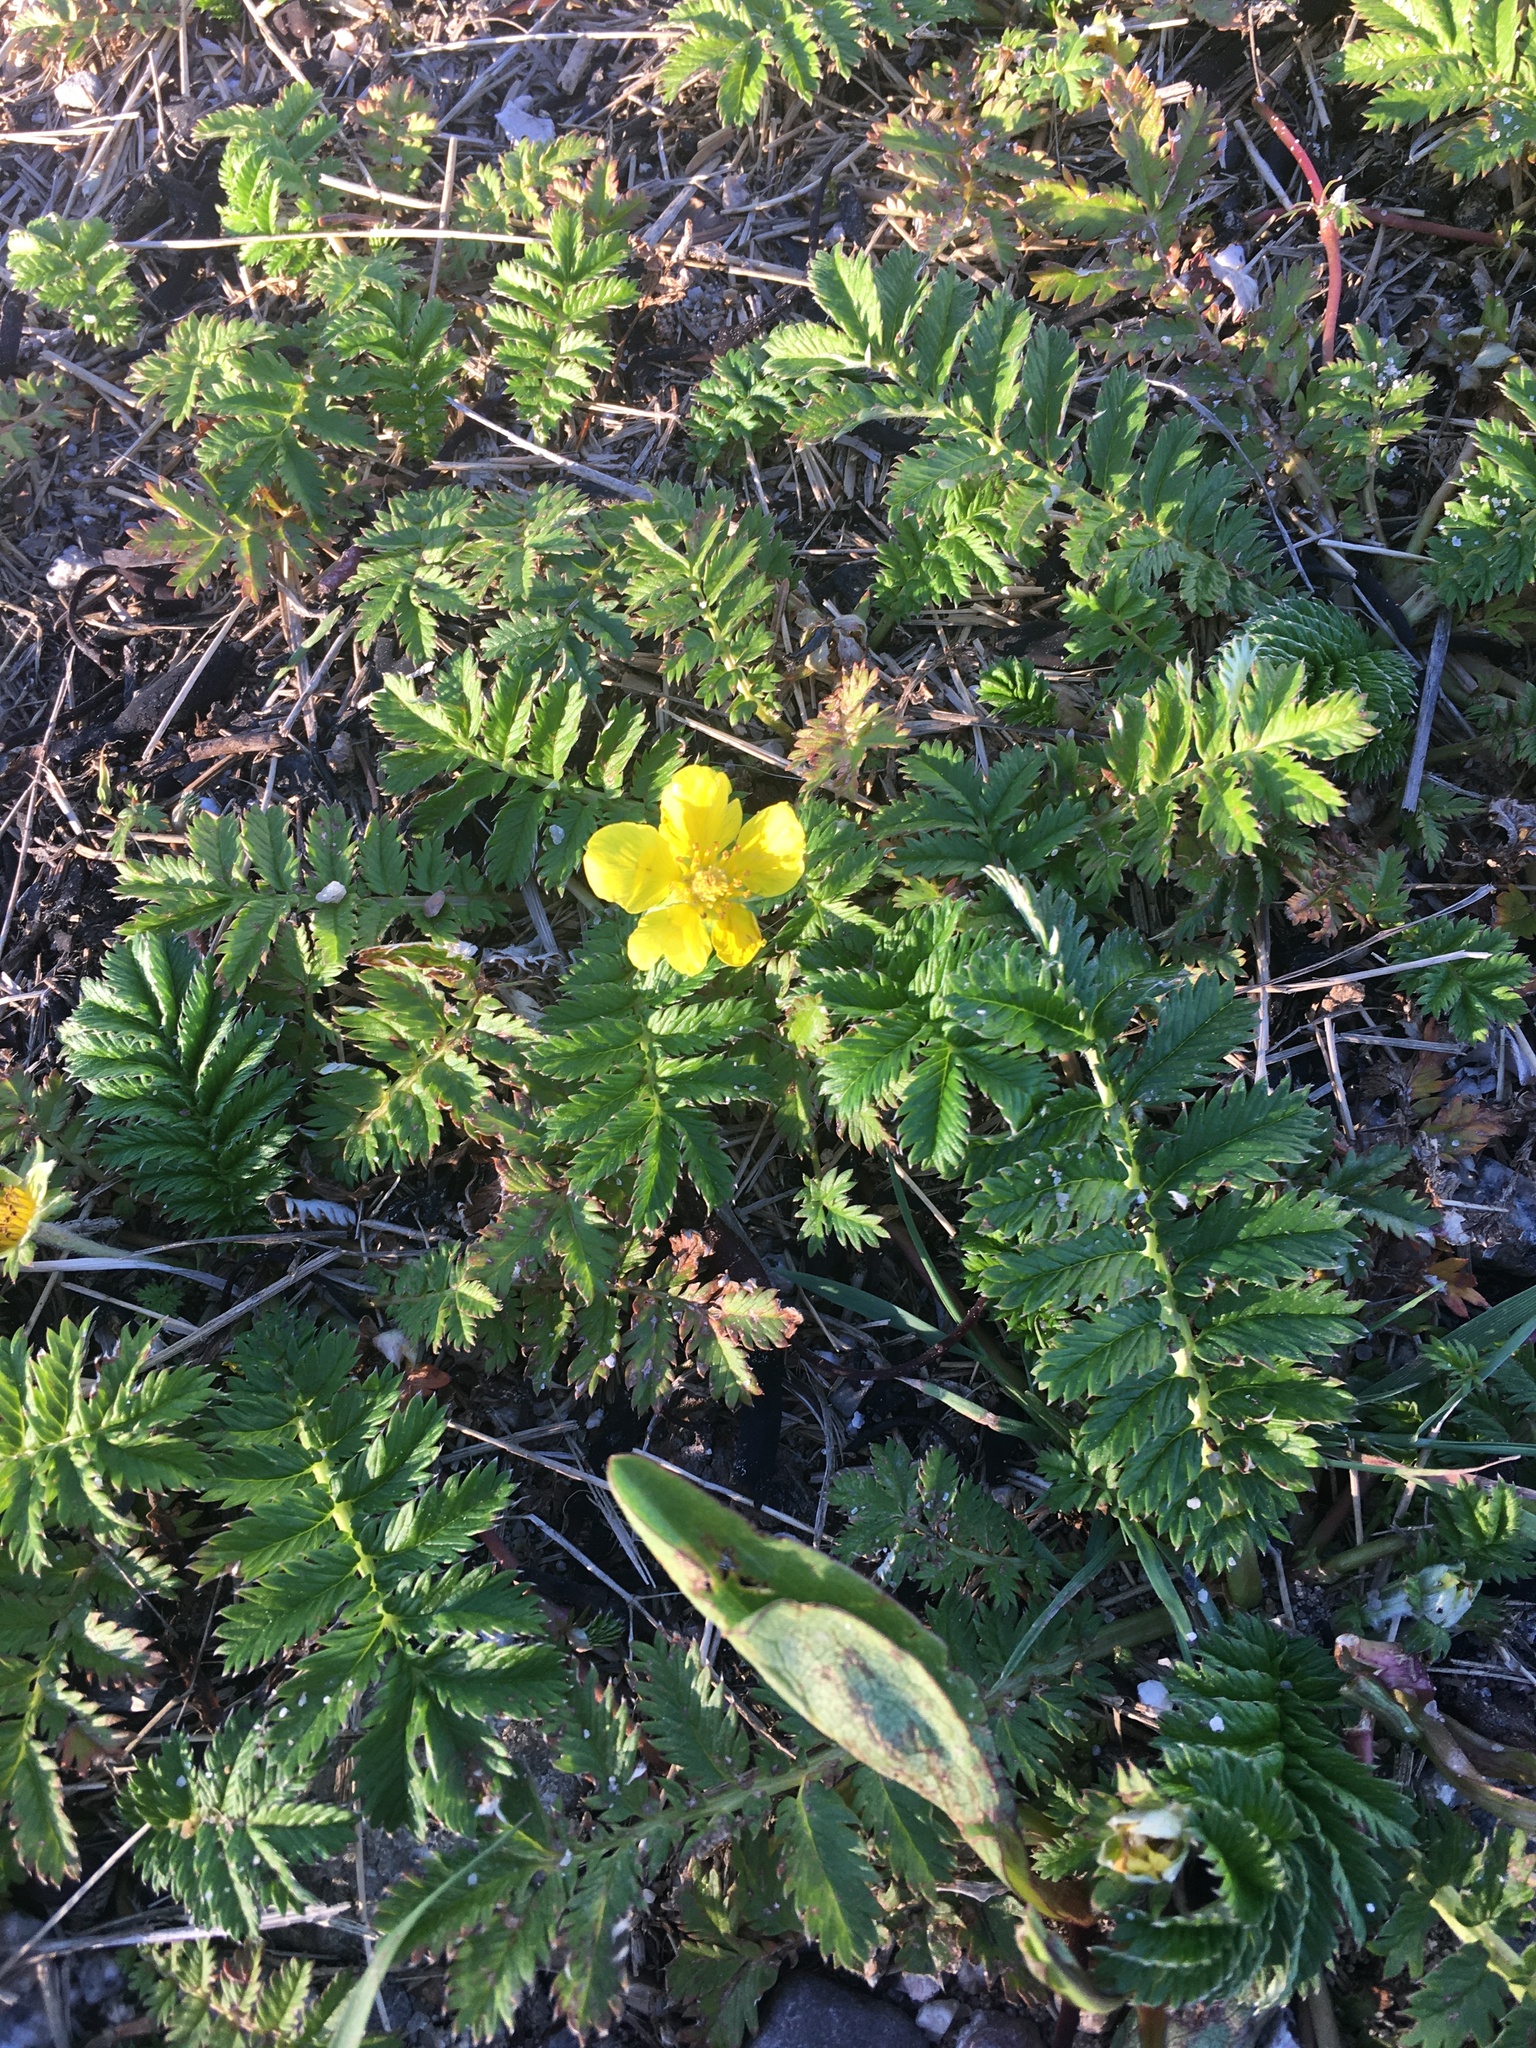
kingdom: Plantae
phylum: Tracheophyta
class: Magnoliopsida
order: Rosales
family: Rosaceae
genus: Argentina
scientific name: Argentina anserina
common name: Common silverweed
